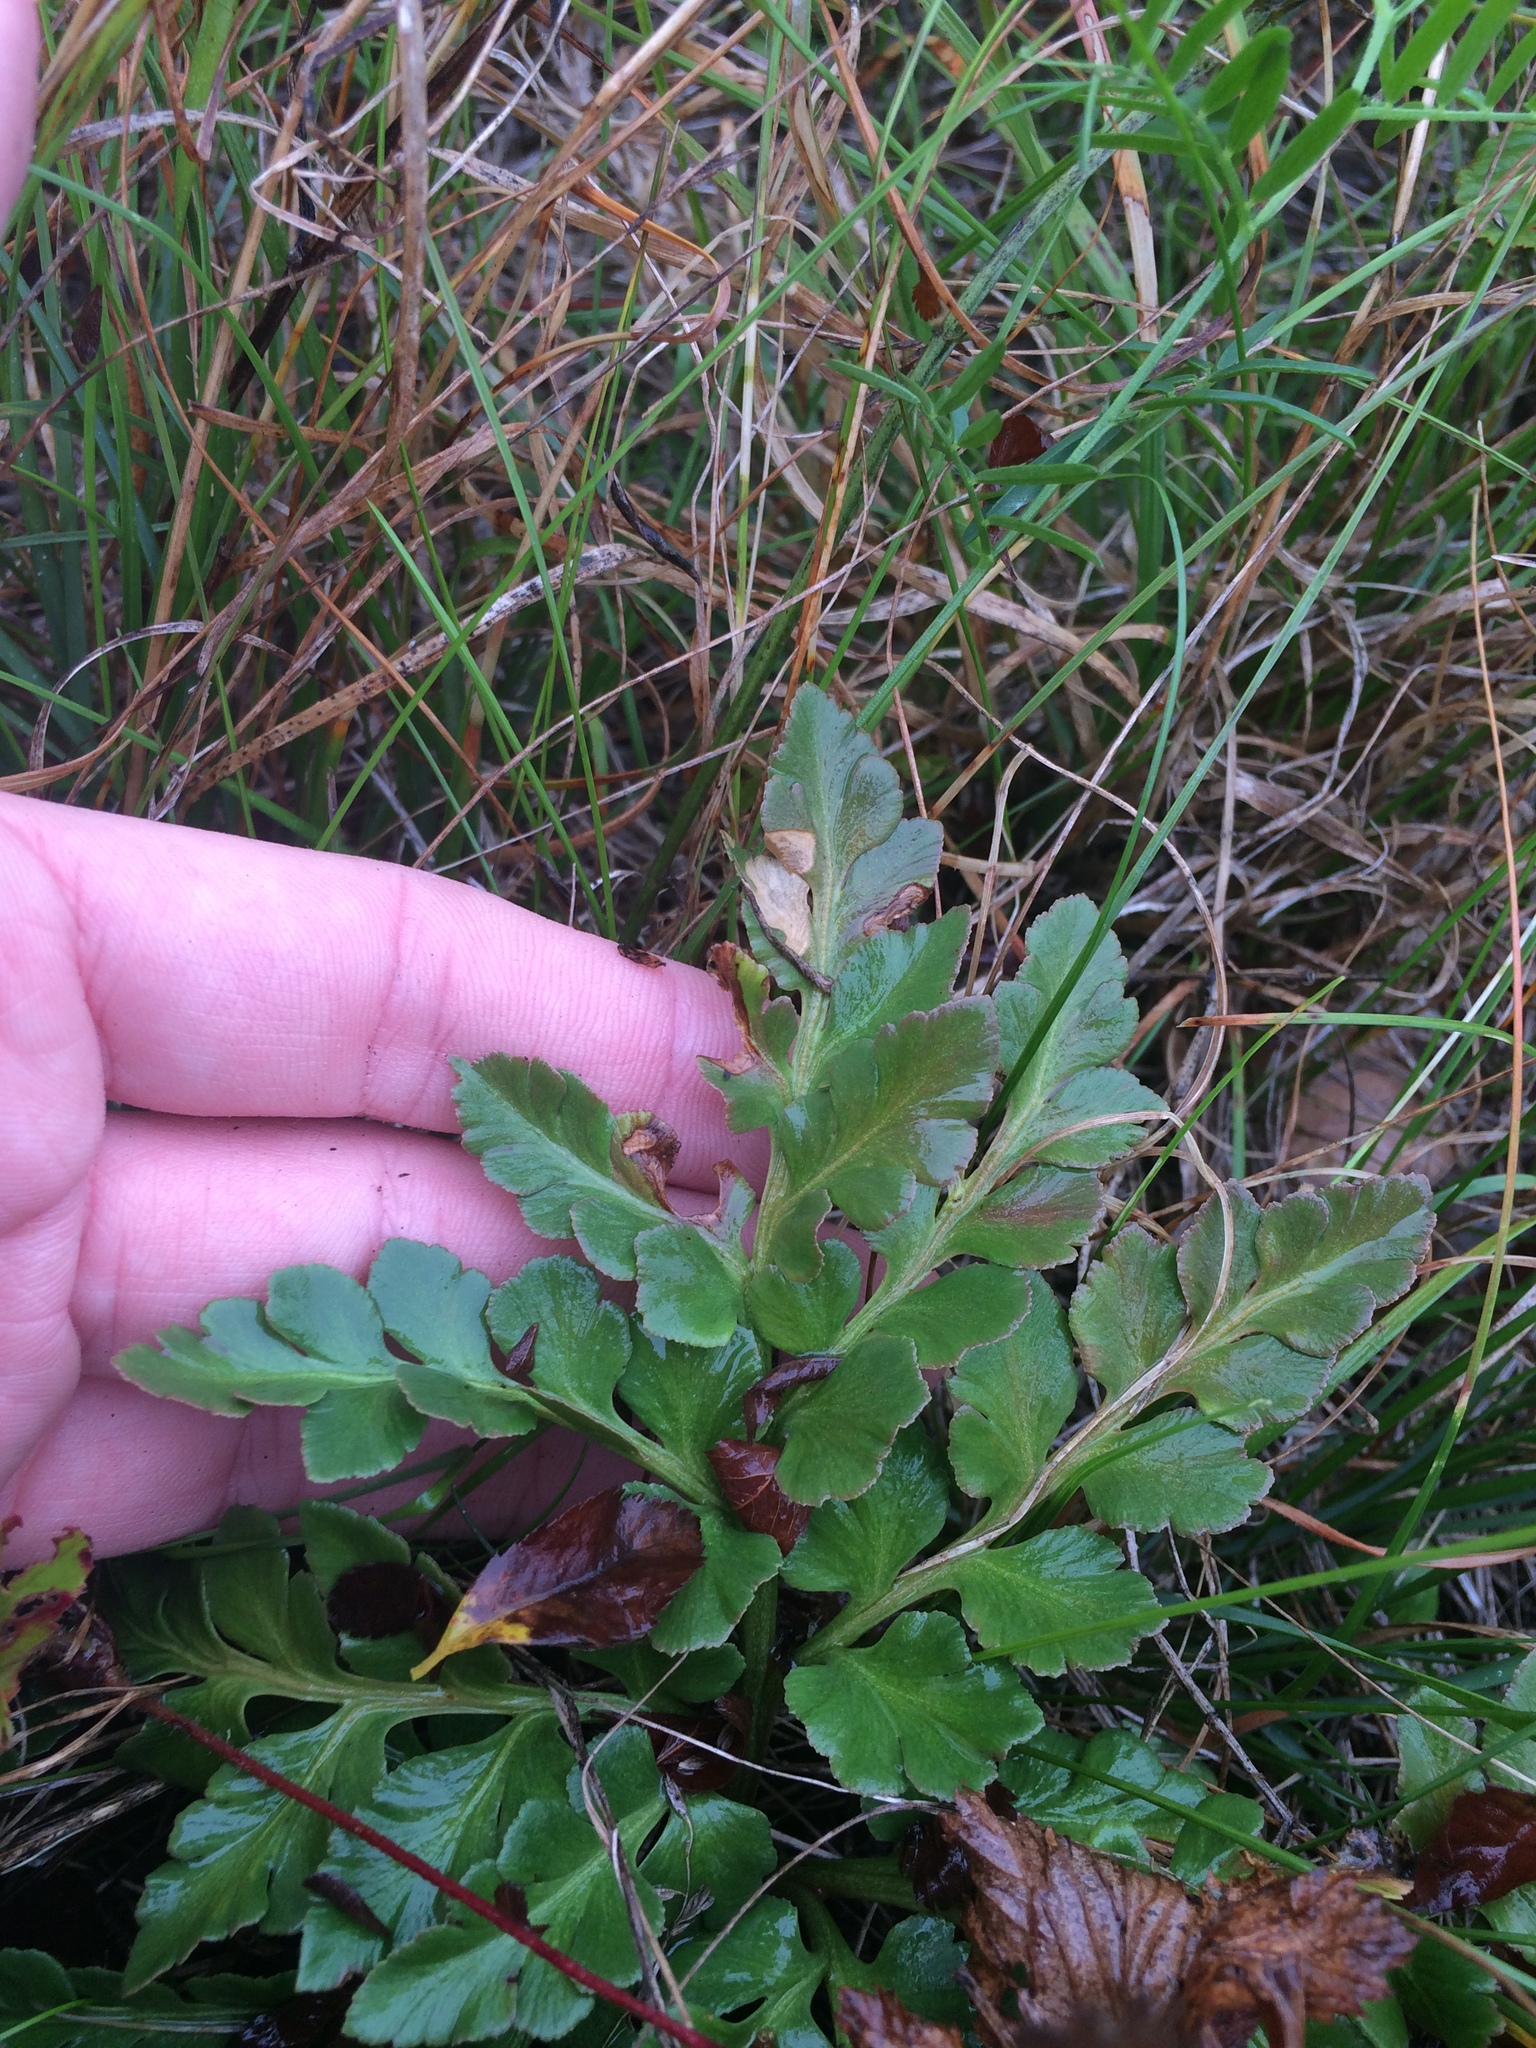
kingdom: Plantae
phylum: Tracheophyta
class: Polypodiopsida
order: Ophioglossales
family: Ophioglossaceae
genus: Sceptridium
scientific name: Sceptridium multifidum
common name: Leathery grape fern
